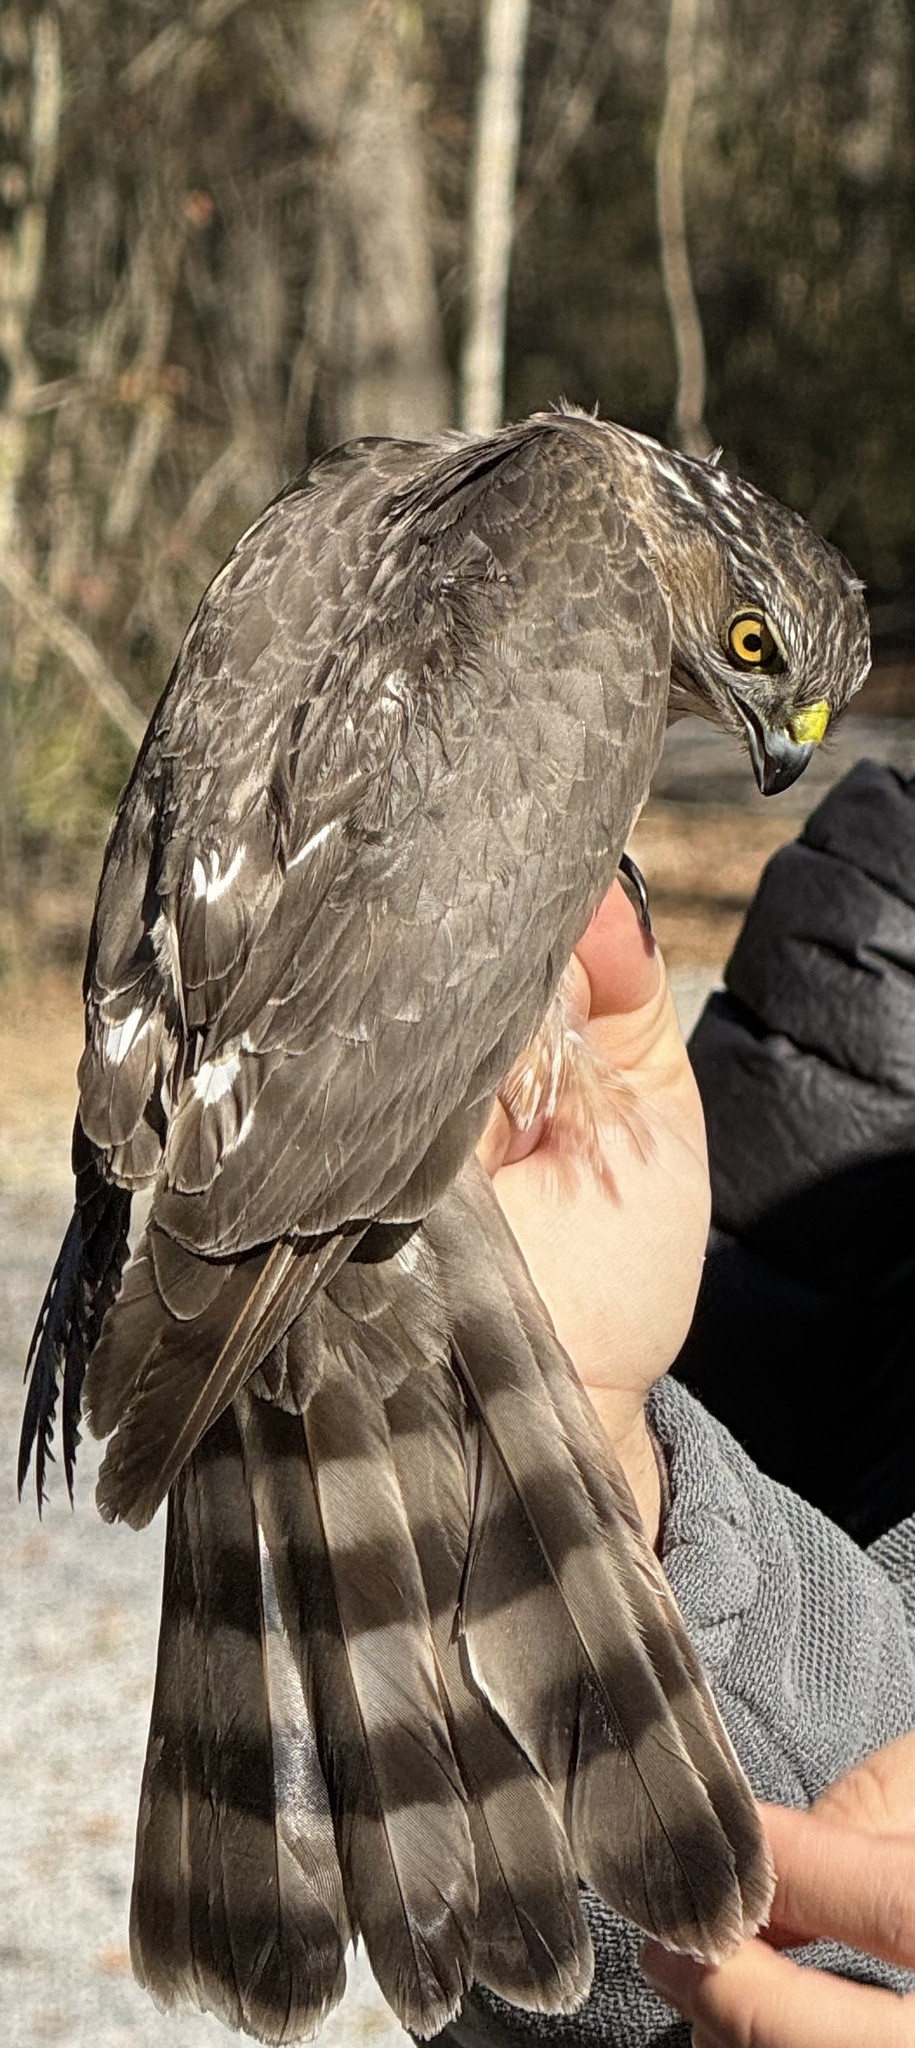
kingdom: Animalia
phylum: Chordata
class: Aves
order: Accipitriformes
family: Accipitridae
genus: Accipiter
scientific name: Accipiter striatus
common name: Sharp-shinned hawk
